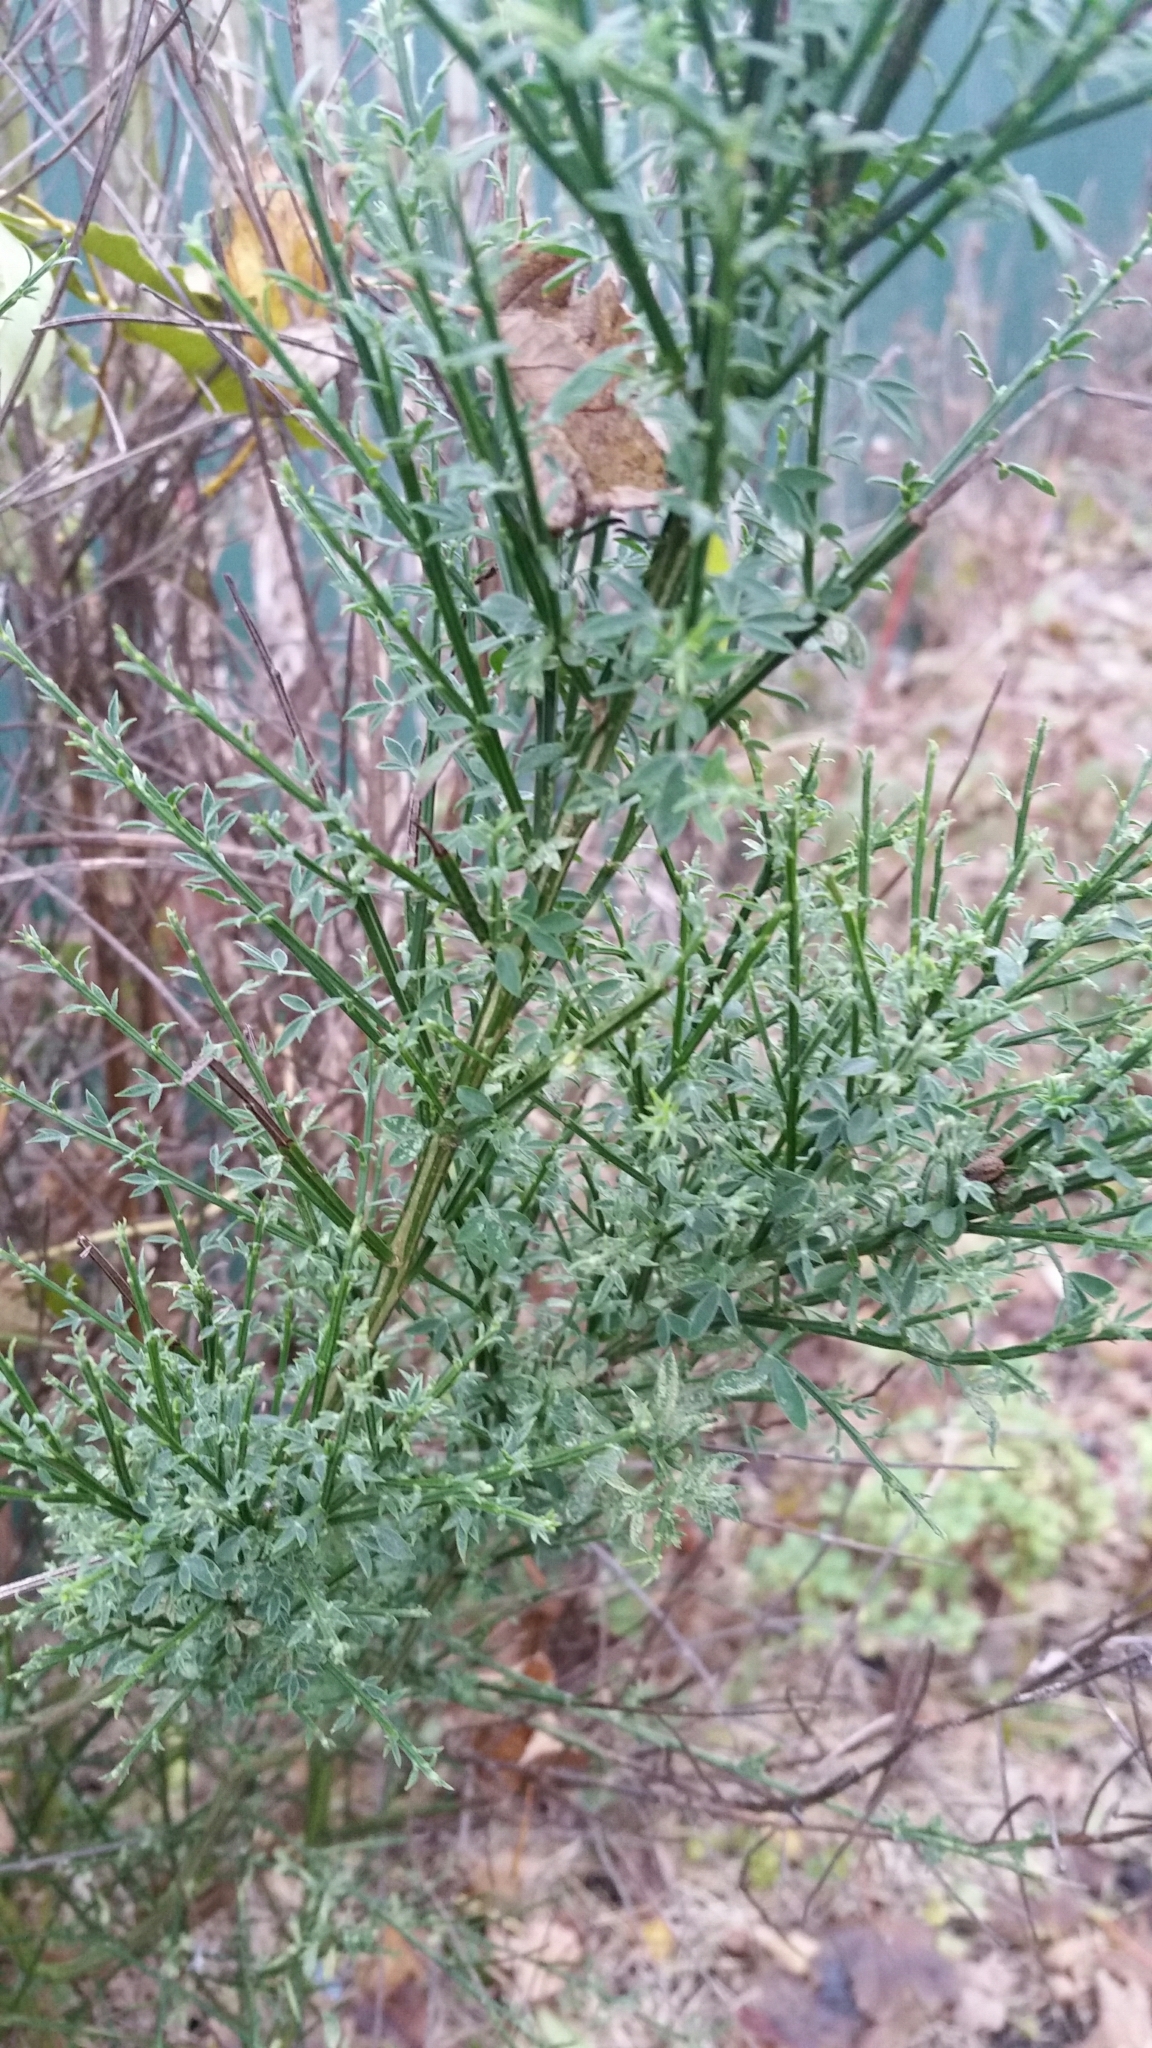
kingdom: Plantae
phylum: Tracheophyta
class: Magnoliopsida
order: Fabales
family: Fabaceae
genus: Cytisus
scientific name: Cytisus scoparius
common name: Scotch broom
